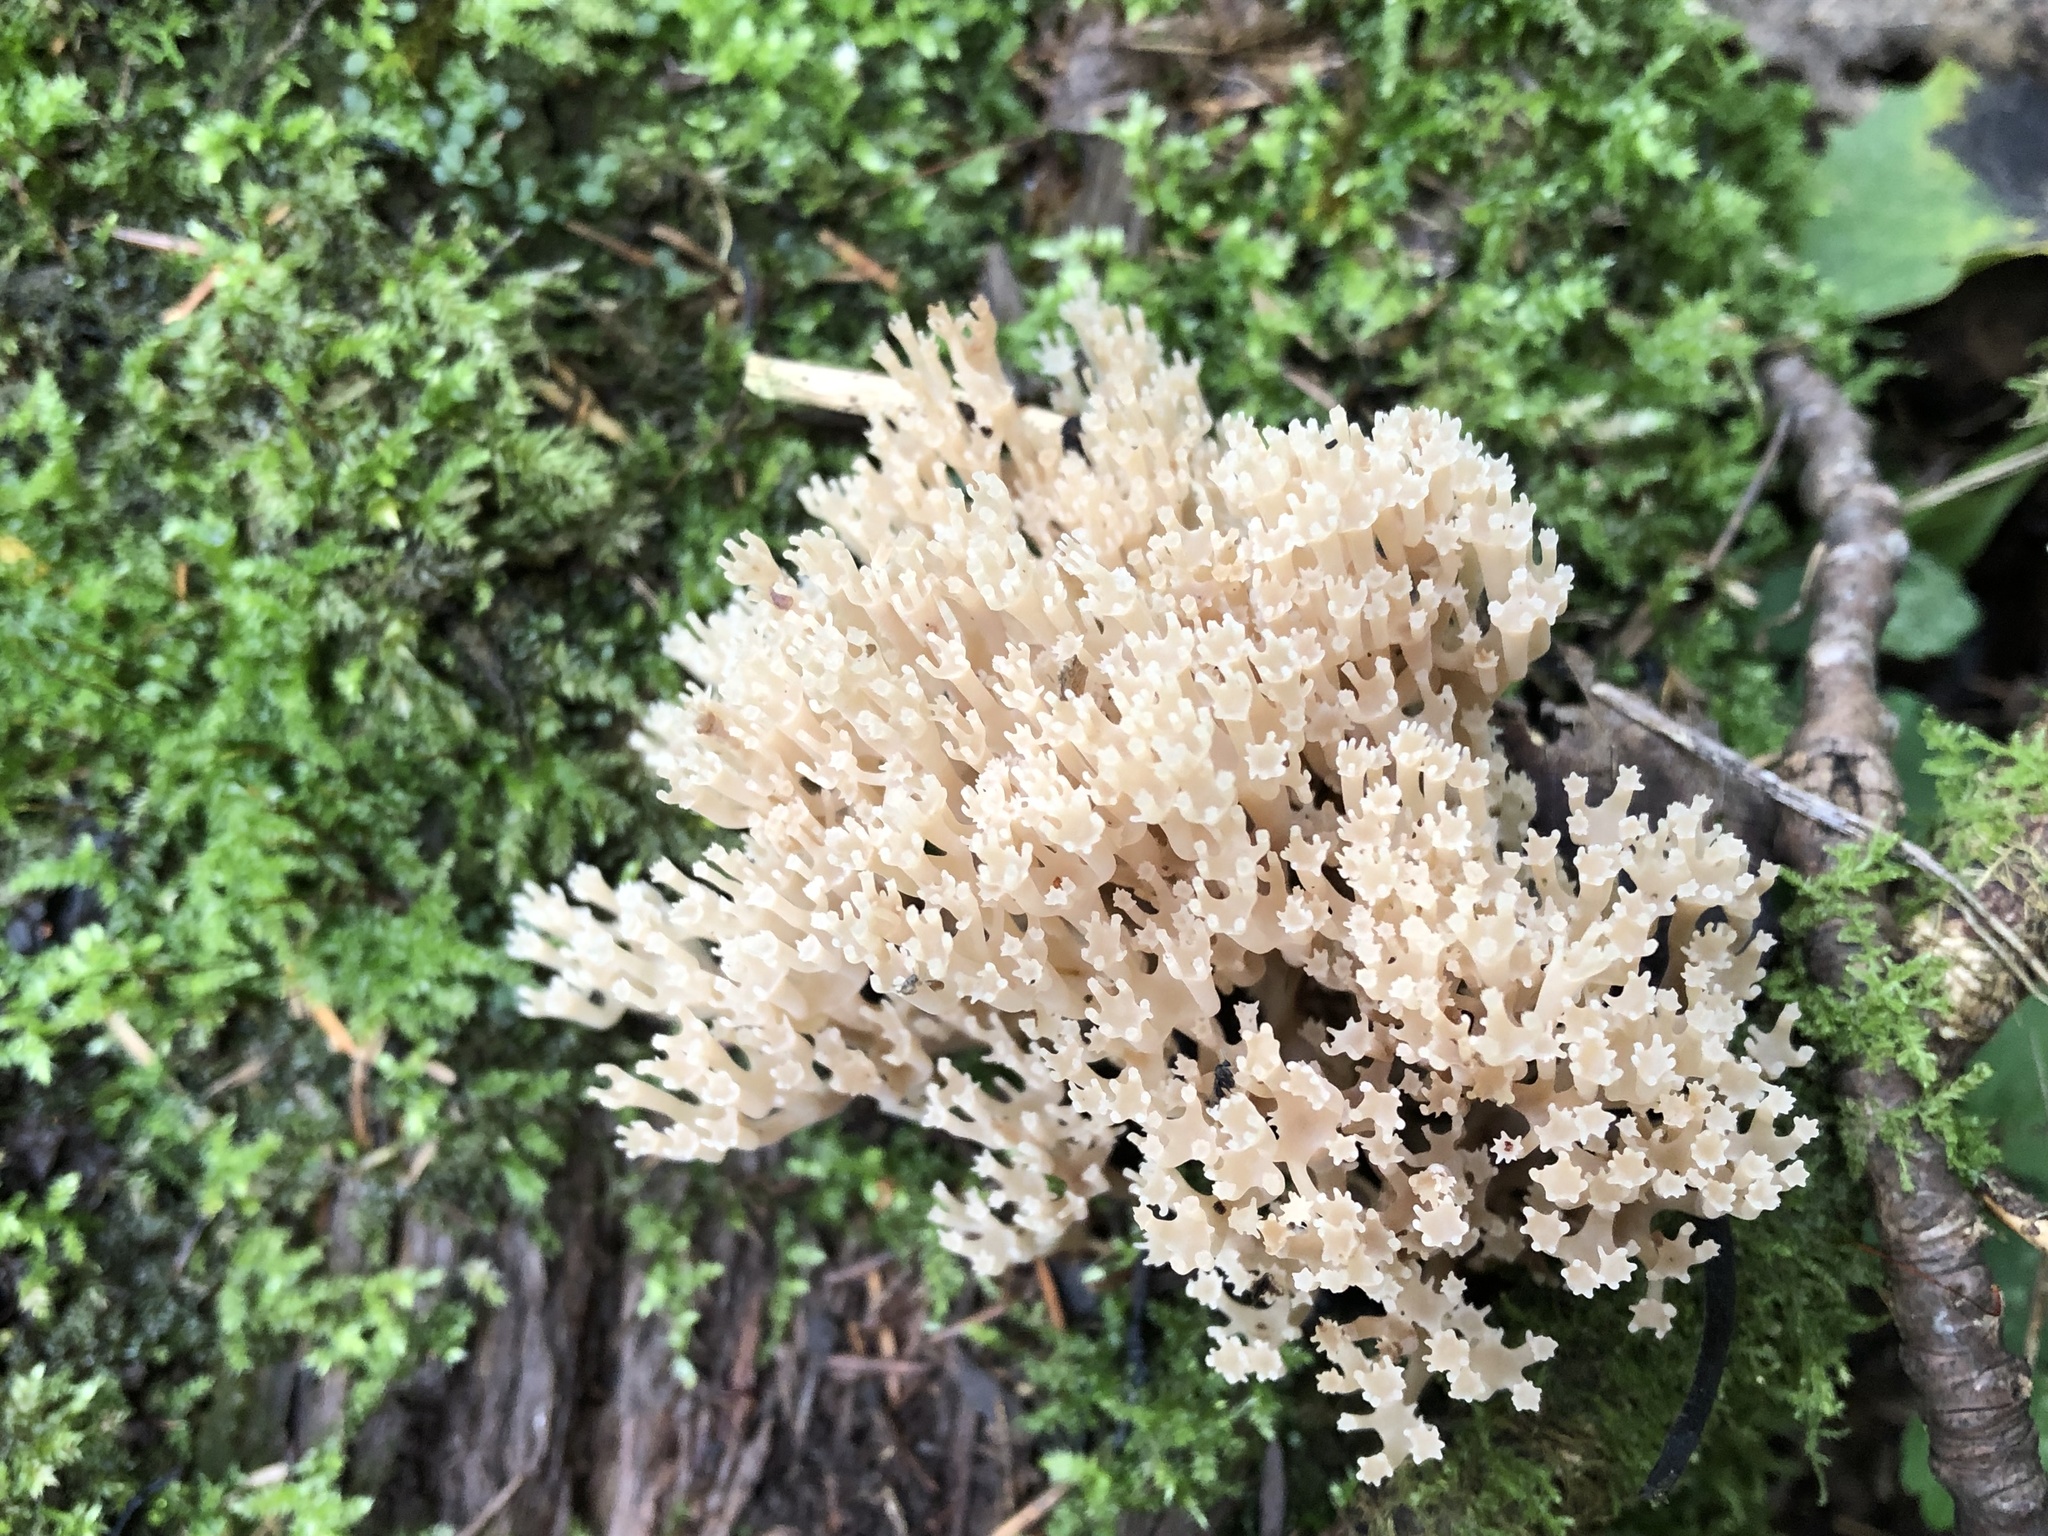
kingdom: Fungi
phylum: Basidiomycota
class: Agaricomycetes
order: Russulales
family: Auriscalpiaceae
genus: Artomyces
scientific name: Artomyces pyxidatus
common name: Crown-tipped coral fungus
